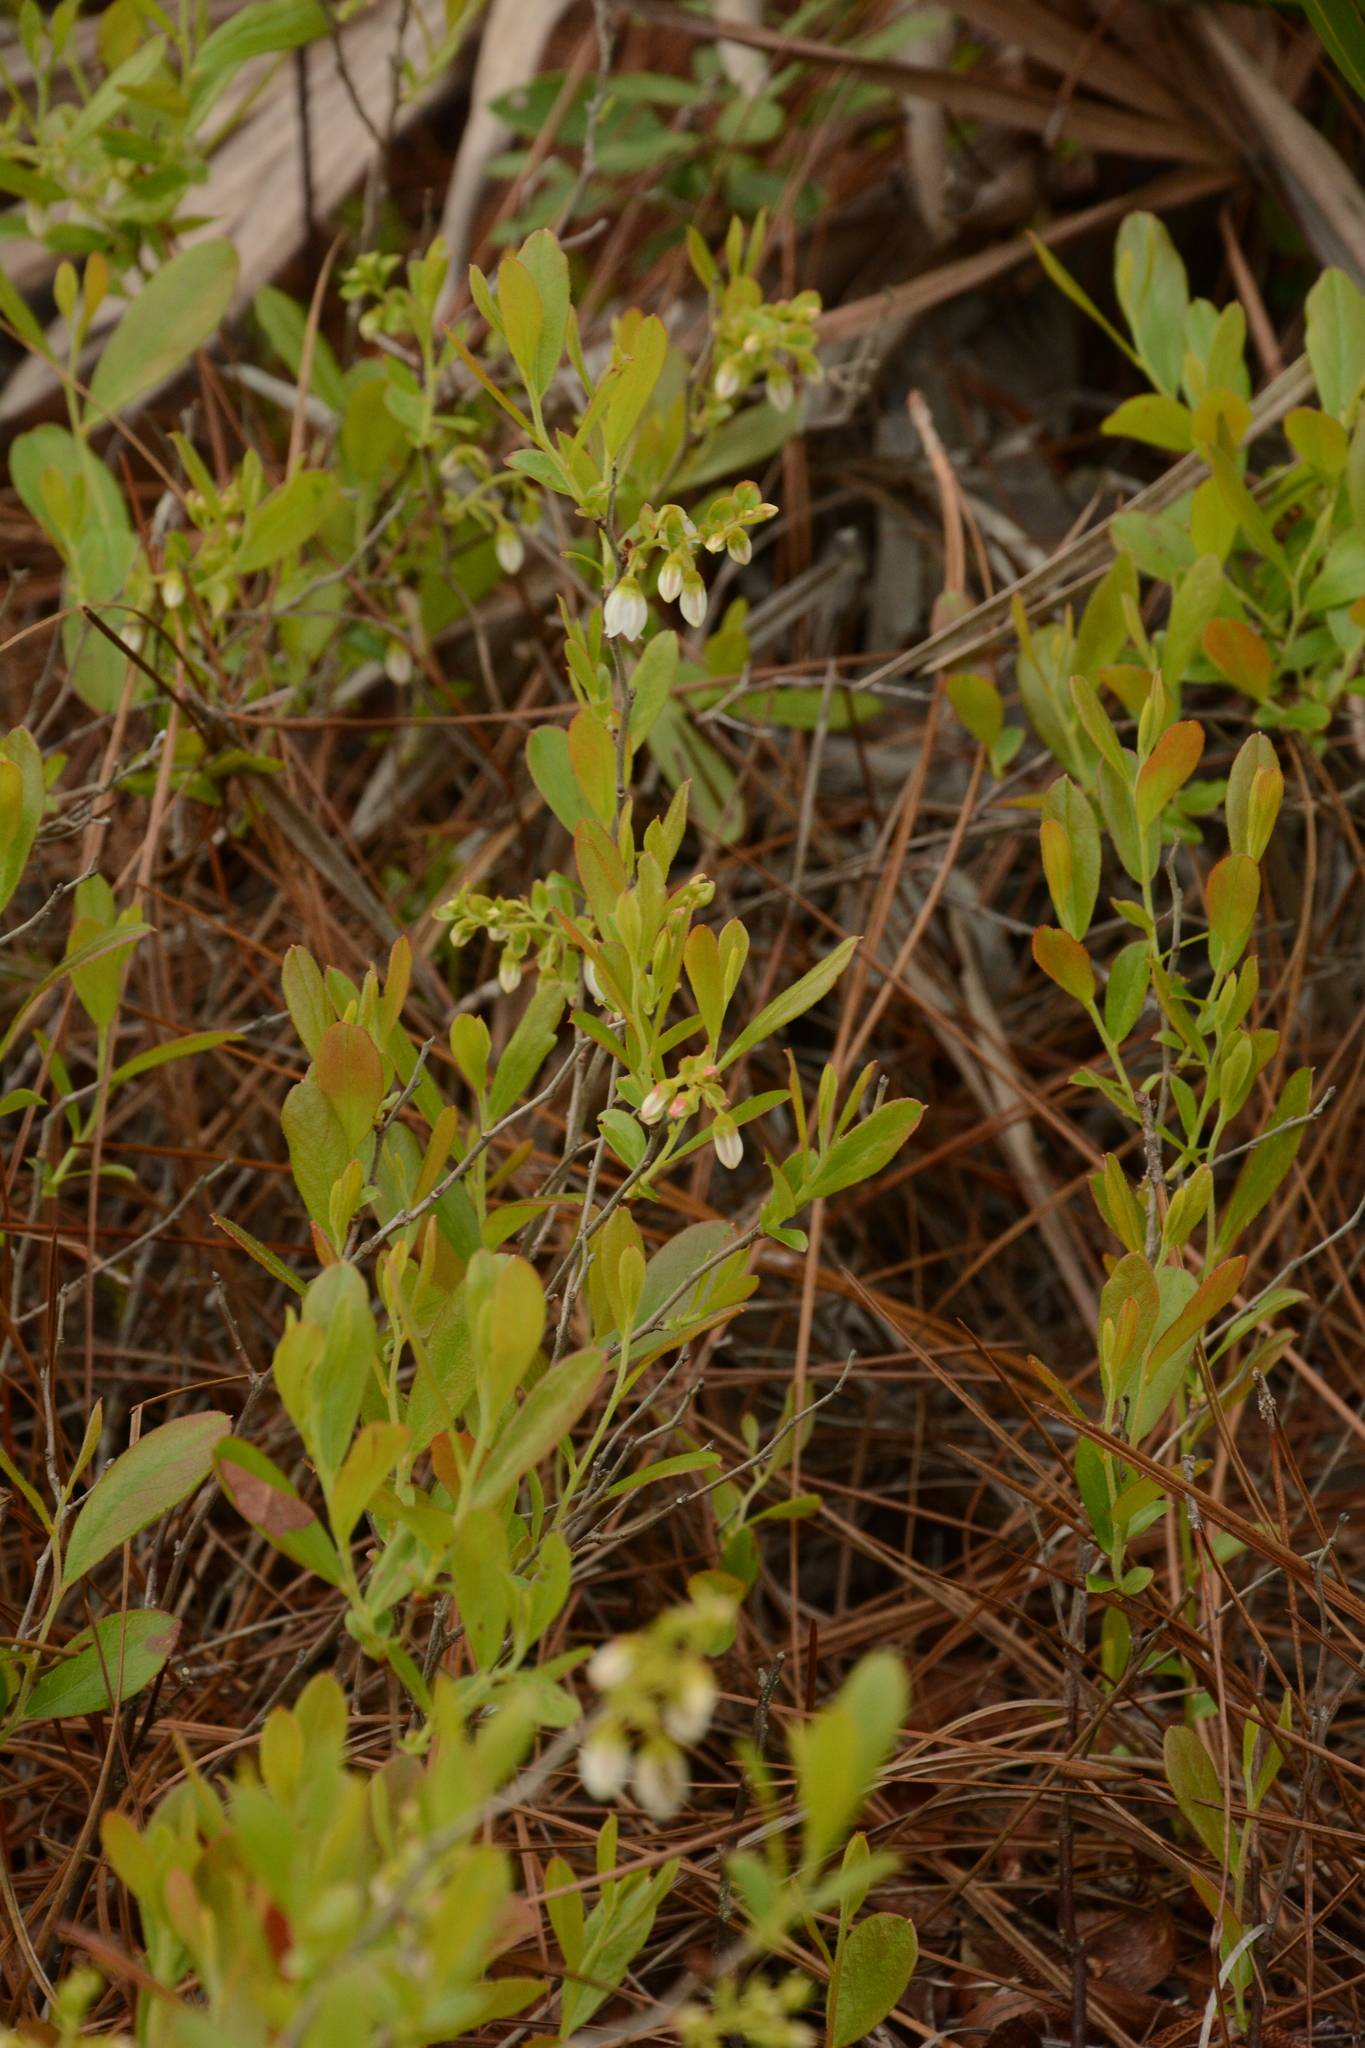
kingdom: Plantae
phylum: Tracheophyta
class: Magnoliopsida
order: Ericales
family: Ericaceae
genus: Gaylussacia
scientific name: Gaylussacia dumosa
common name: Dwarf huckleberry
